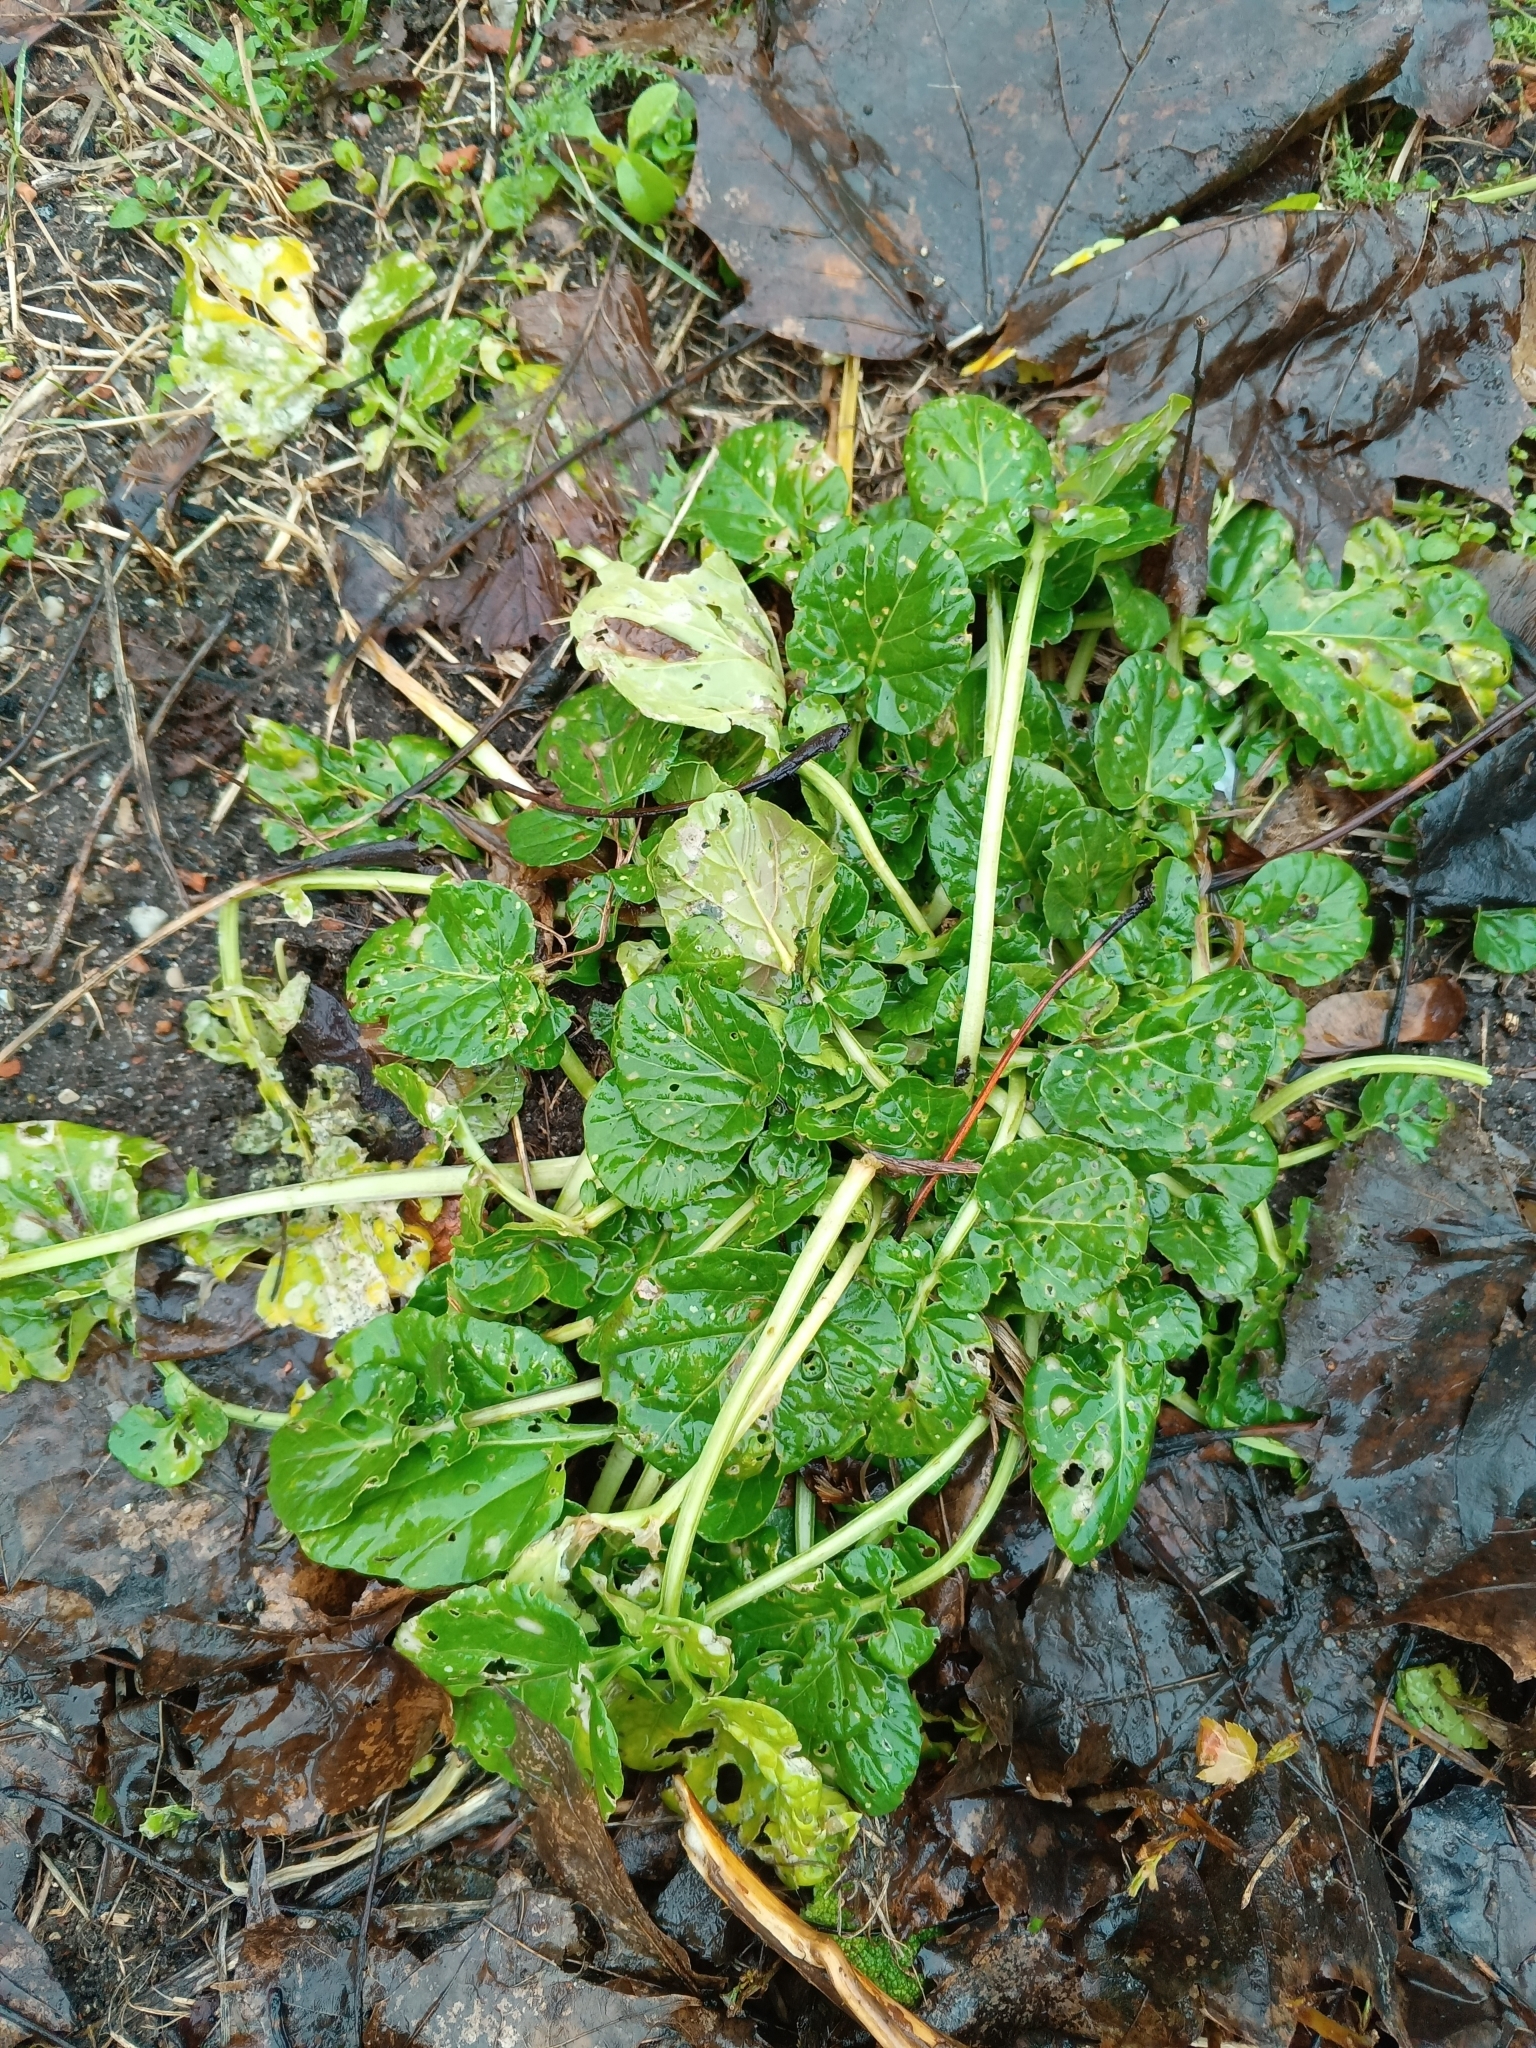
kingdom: Plantae
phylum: Tracheophyta
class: Magnoliopsida
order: Brassicales
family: Brassicaceae
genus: Barbarea
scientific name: Barbarea vulgaris
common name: Cressy-greens
